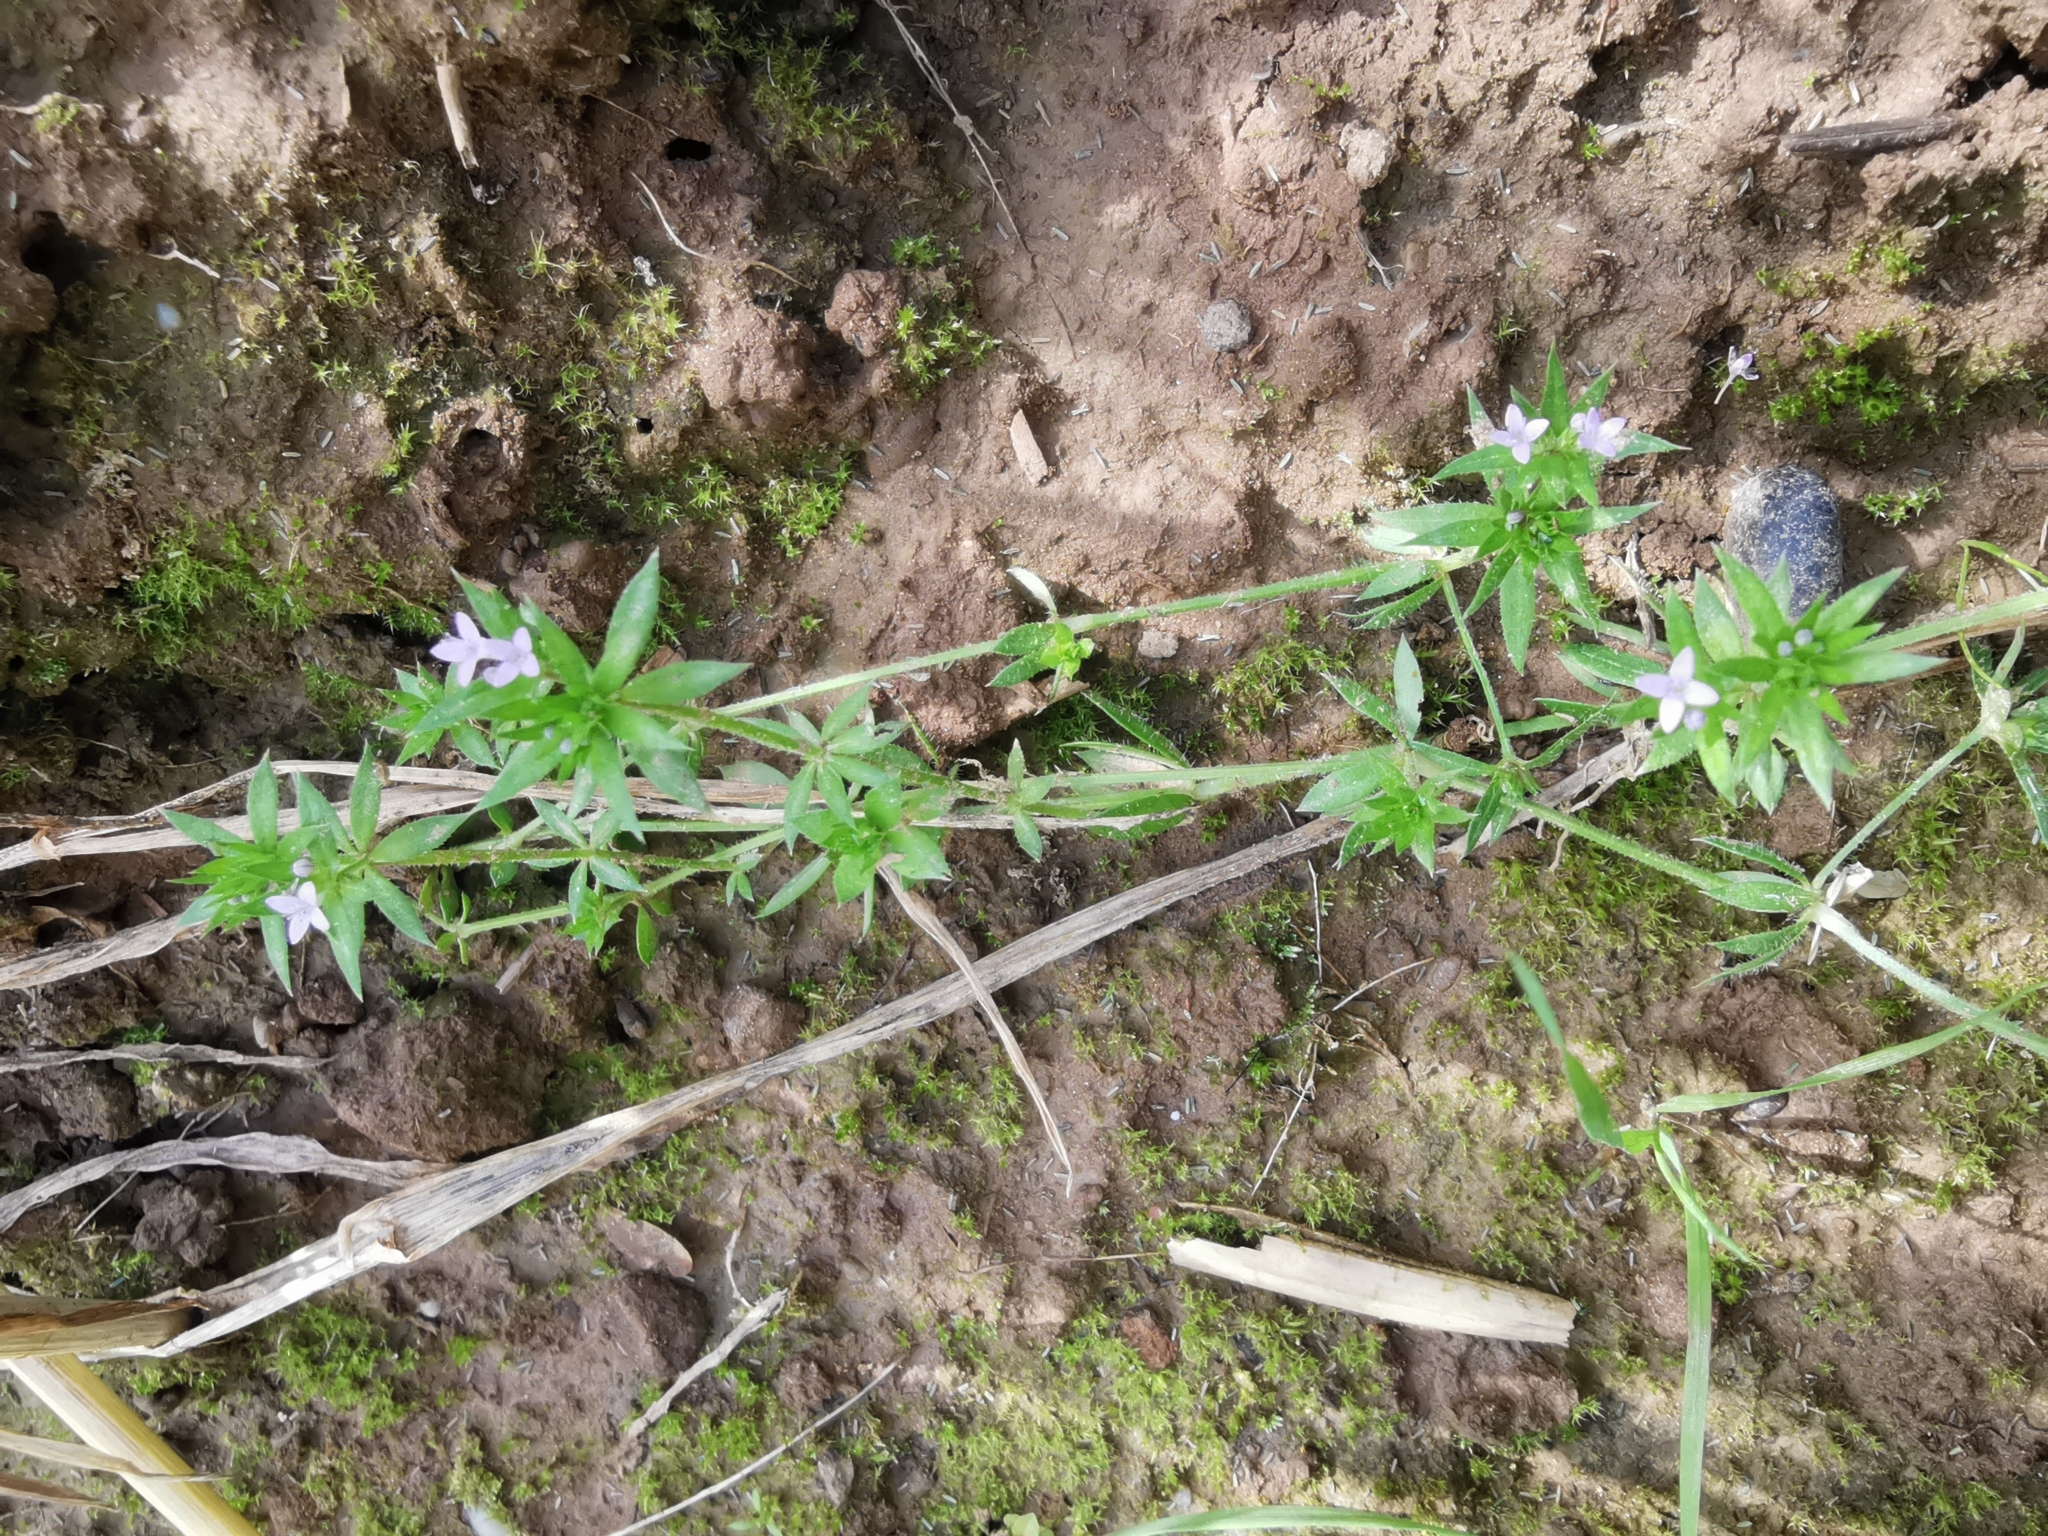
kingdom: Plantae
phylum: Tracheophyta
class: Magnoliopsida
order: Gentianales
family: Rubiaceae
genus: Sherardia
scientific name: Sherardia arvensis
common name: Field madder
